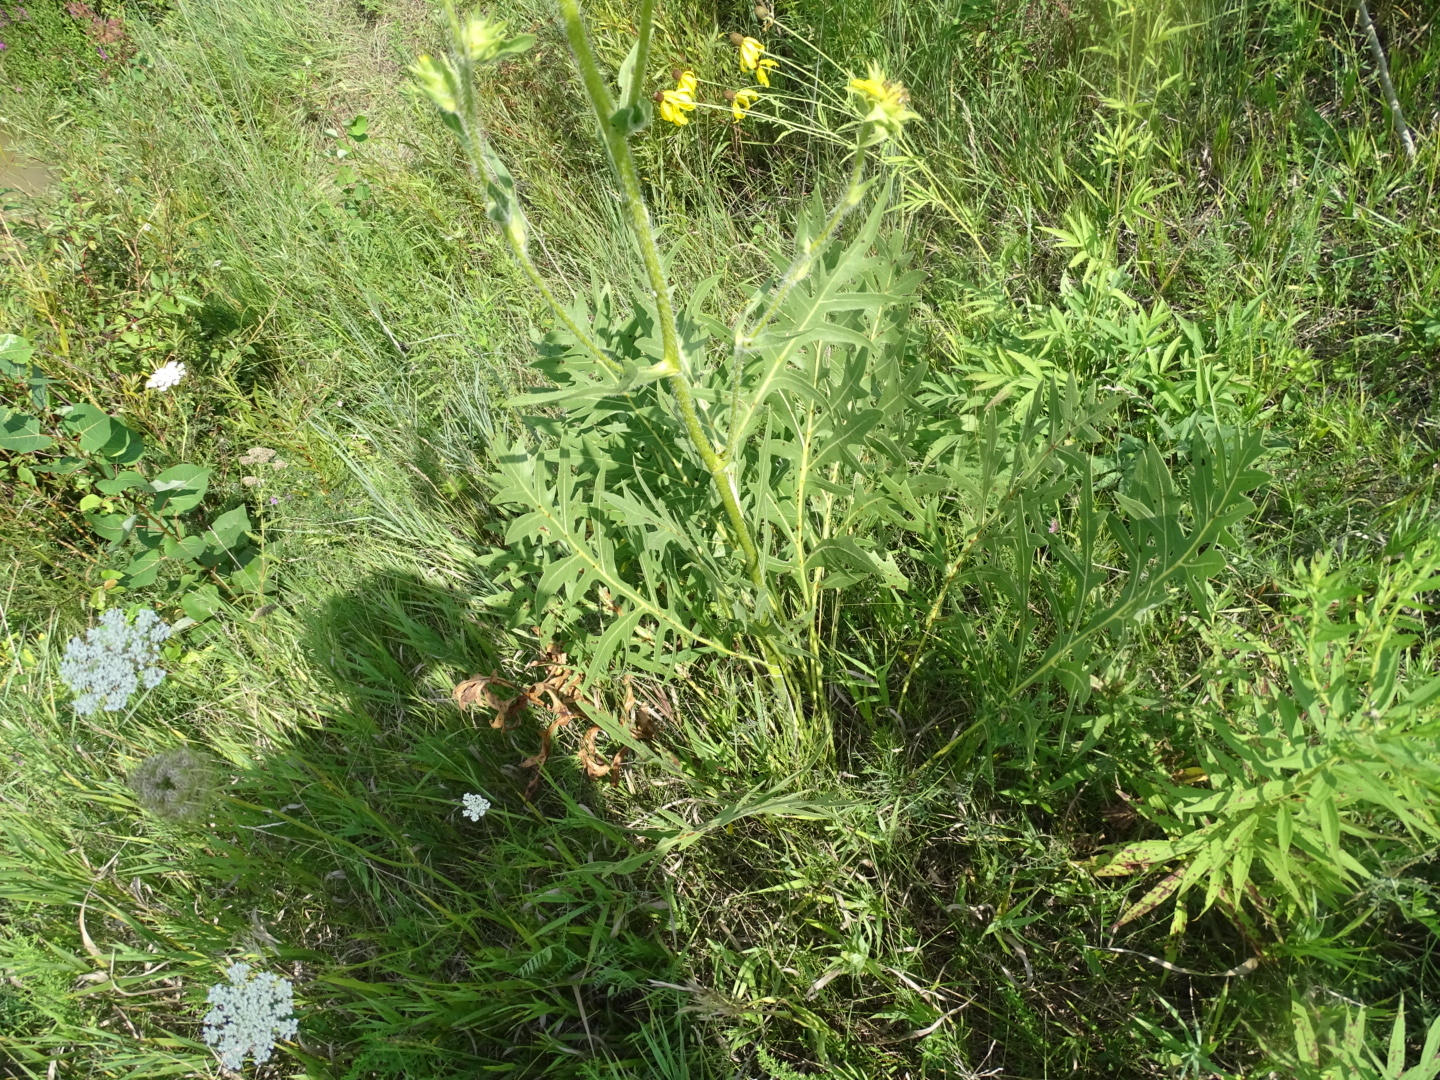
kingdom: Plantae
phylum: Tracheophyta
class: Magnoliopsida
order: Asterales
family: Asteraceae
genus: Silphium
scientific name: Silphium laciniatum
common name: Polarplant
